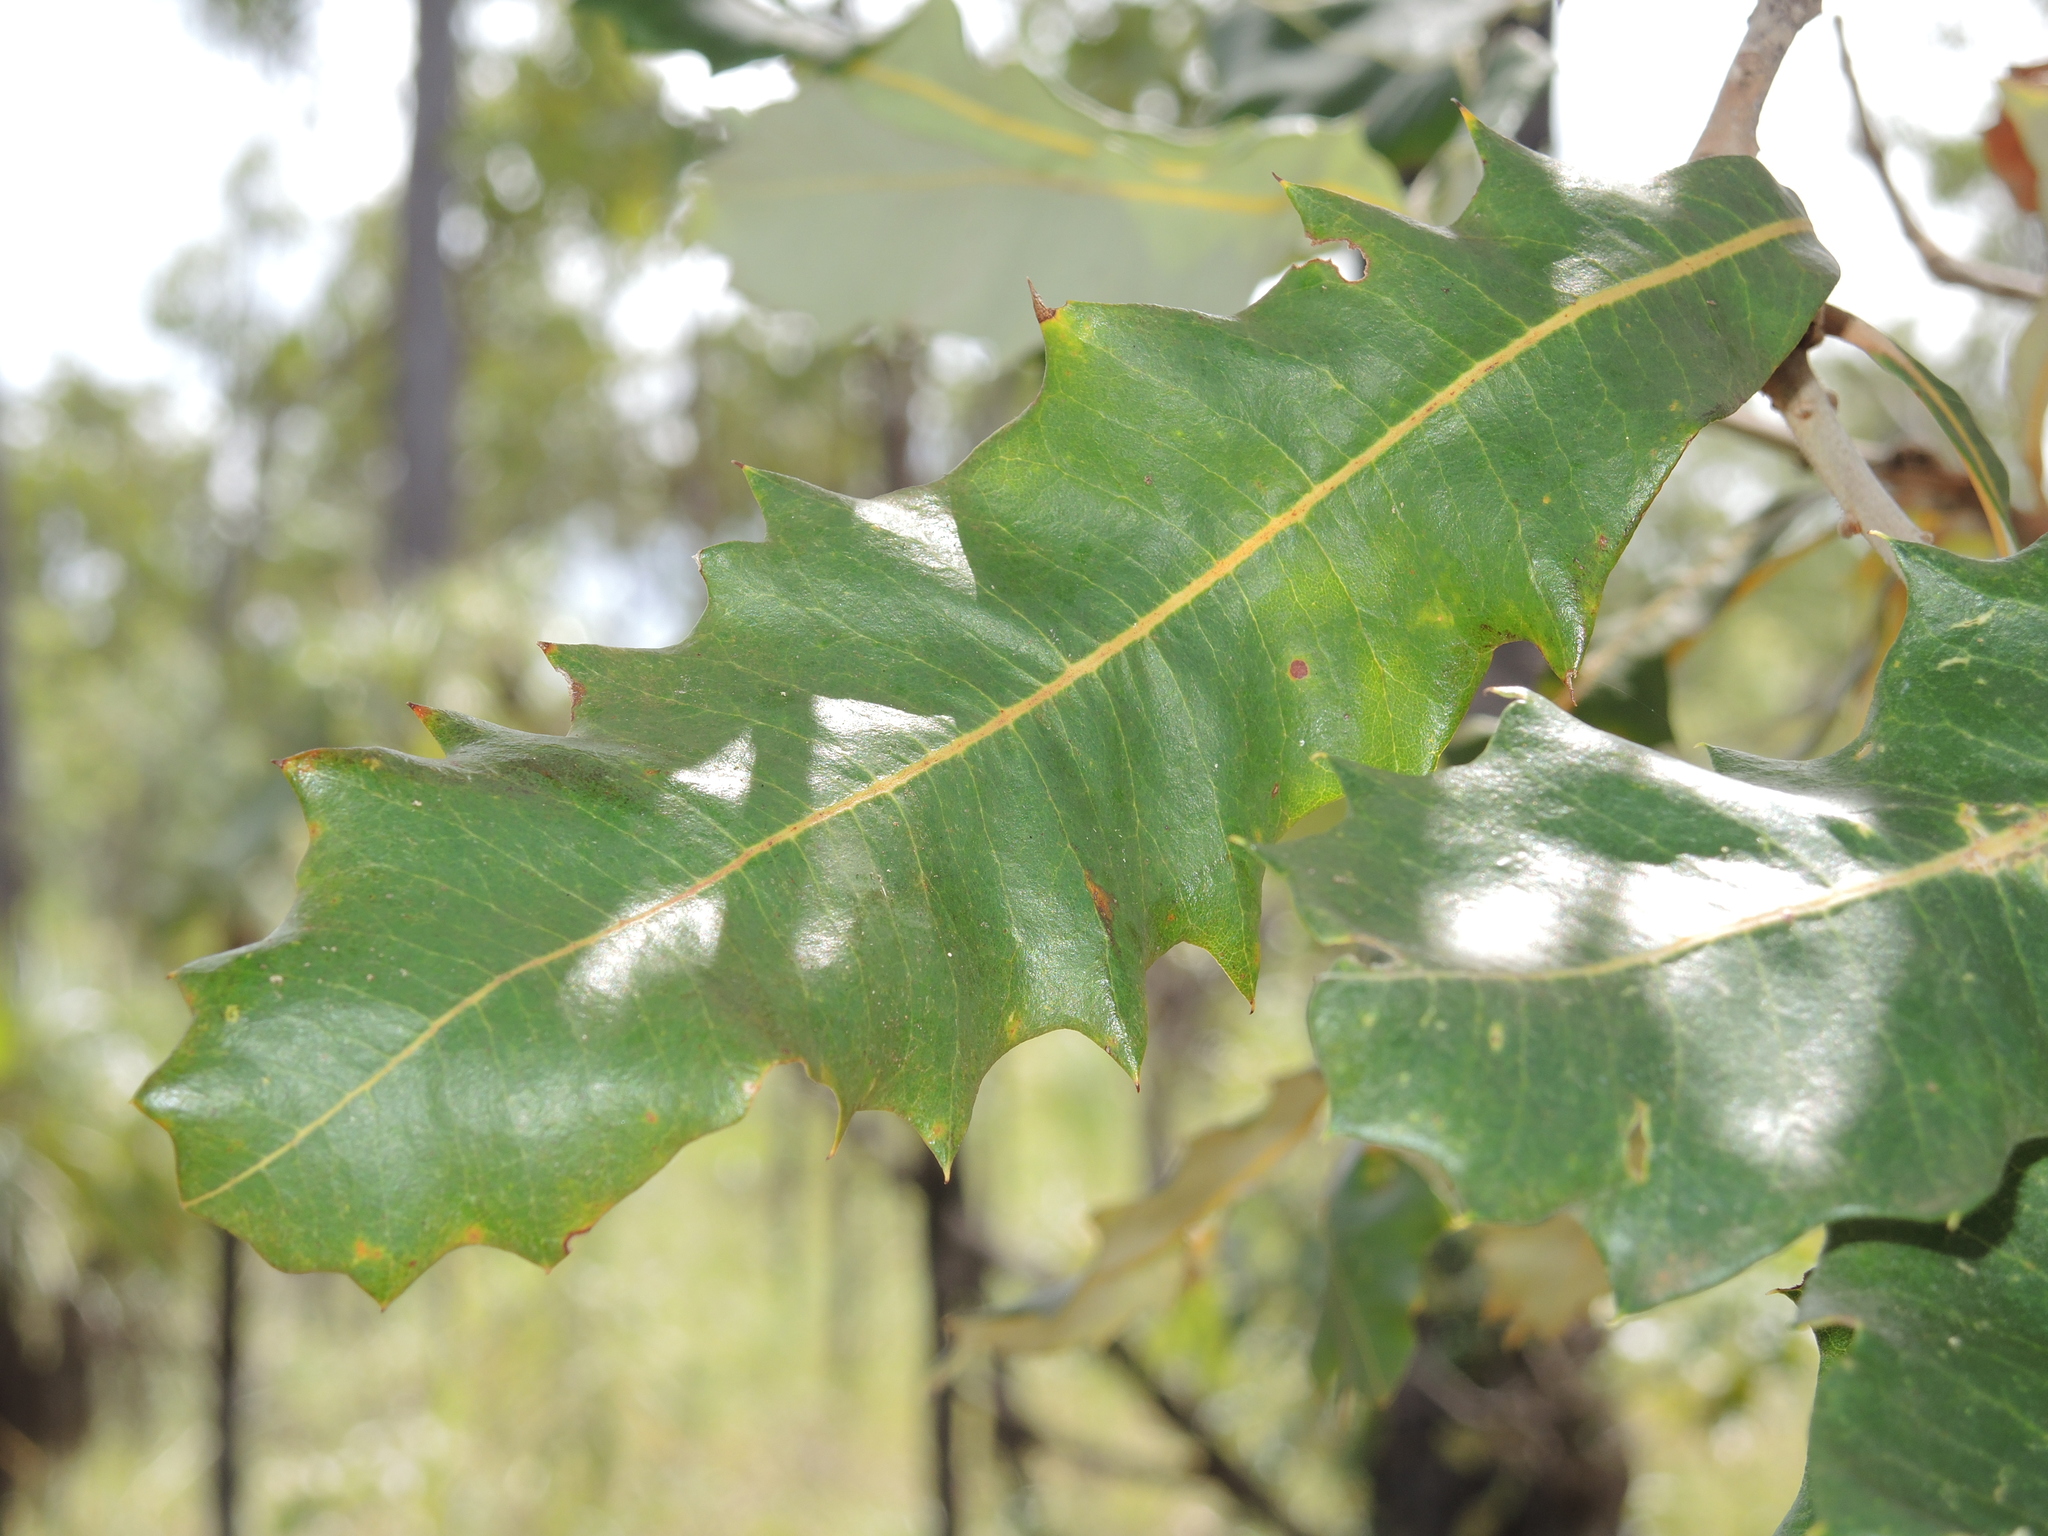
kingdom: Plantae
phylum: Tracheophyta
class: Magnoliopsida
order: Proteales
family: Proteaceae
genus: Banksia
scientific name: Banksia dentata
